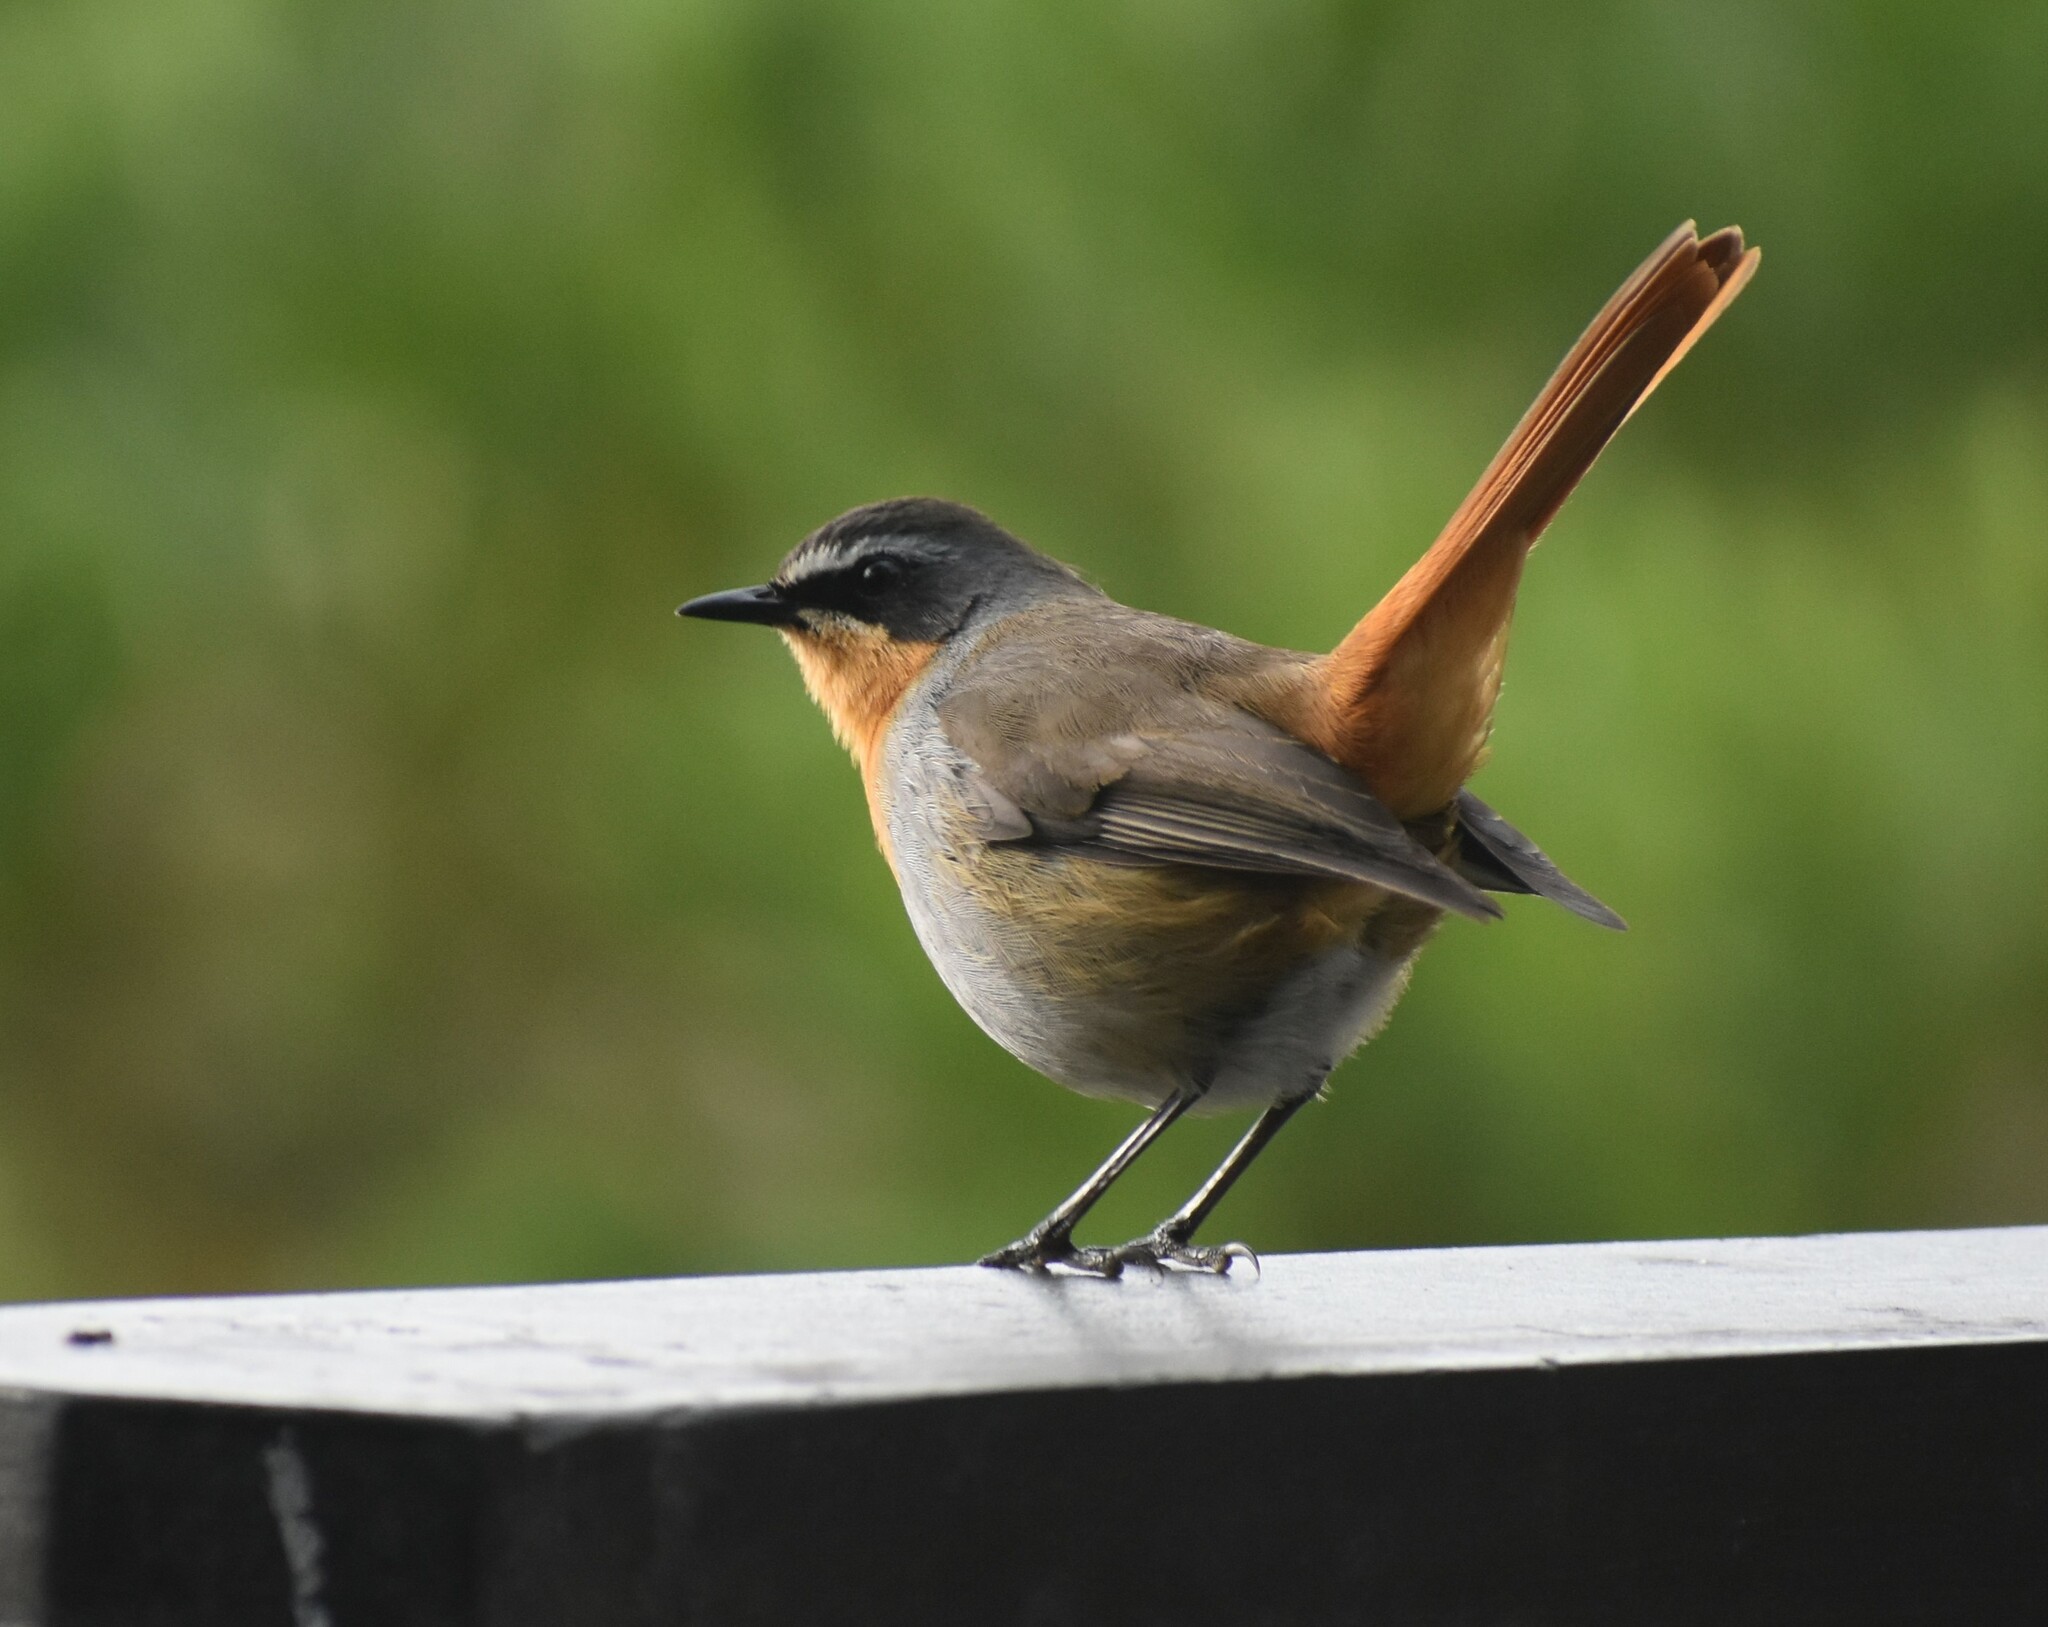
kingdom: Animalia
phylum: Chordata
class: Aves
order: Passeriformes
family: Muscicapidae
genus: Cossypha
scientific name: Cossypha caffra
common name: Cape robin-chat
